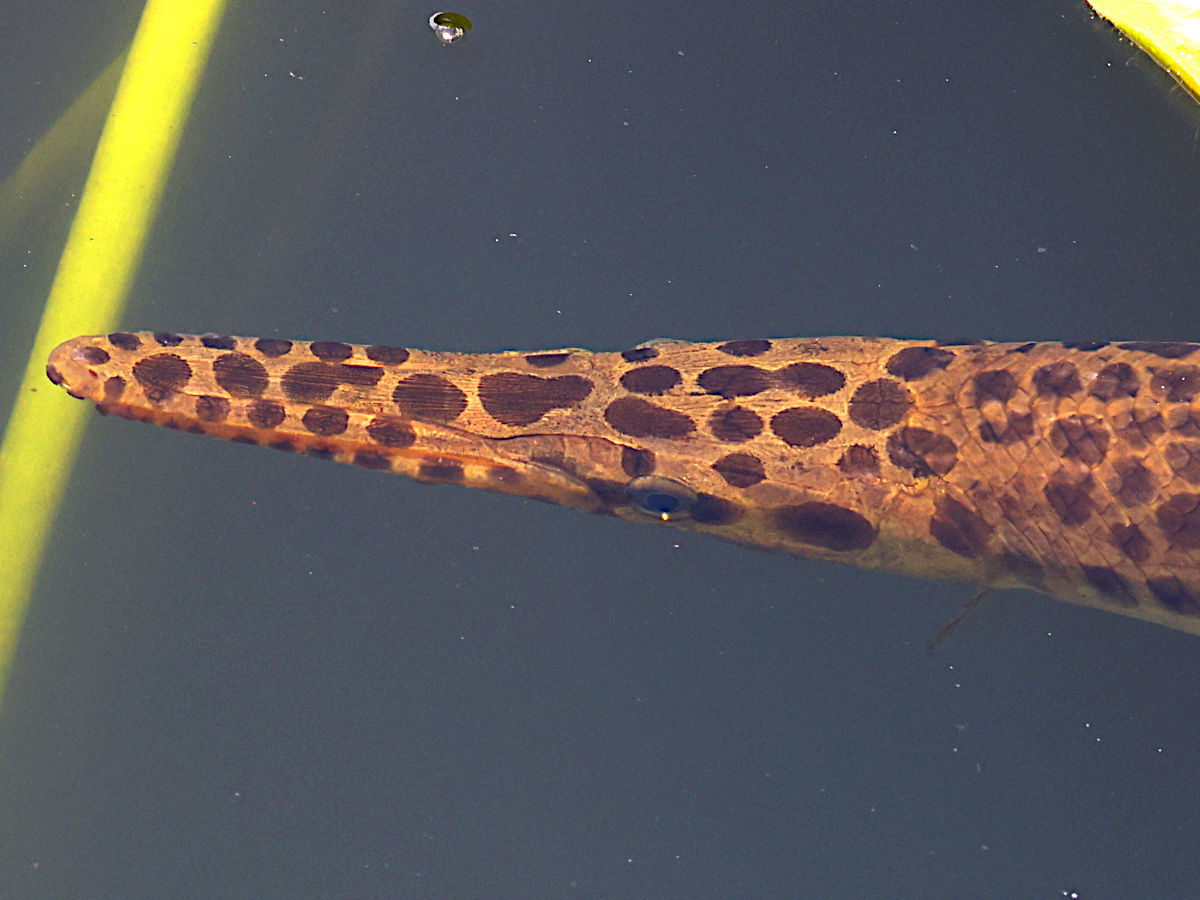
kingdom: Animalia
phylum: Chordata
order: Lepisosteiformes
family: Lepisosteidae
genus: Lepisosteus
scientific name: Lepisosteus platyrhincus
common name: Florida gar
